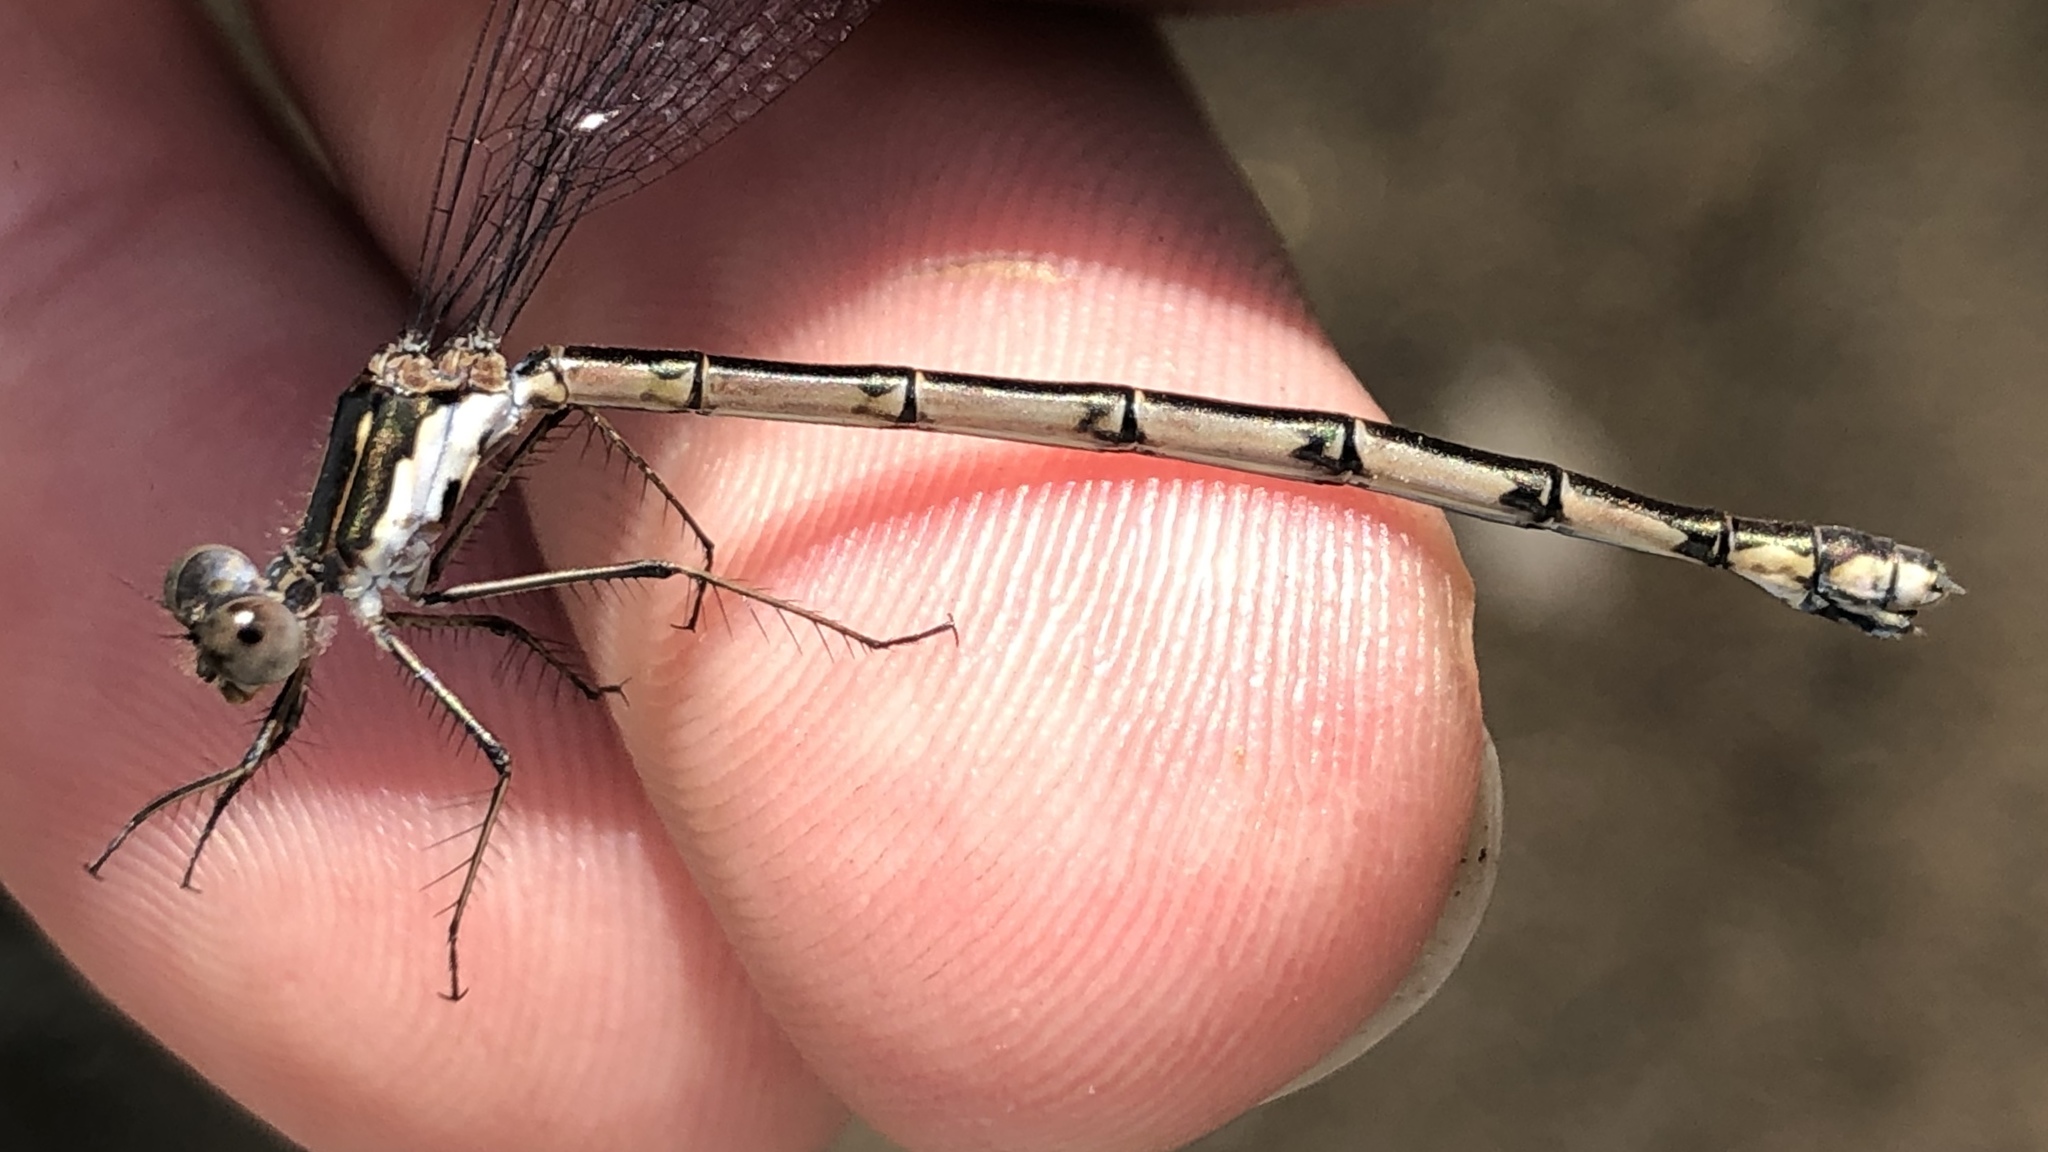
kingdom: Animalia
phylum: Arthropoda
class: Insecta
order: Odonata
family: Lestidae
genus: Lestes
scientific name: Lestes congener
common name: Spotted spreadwing
